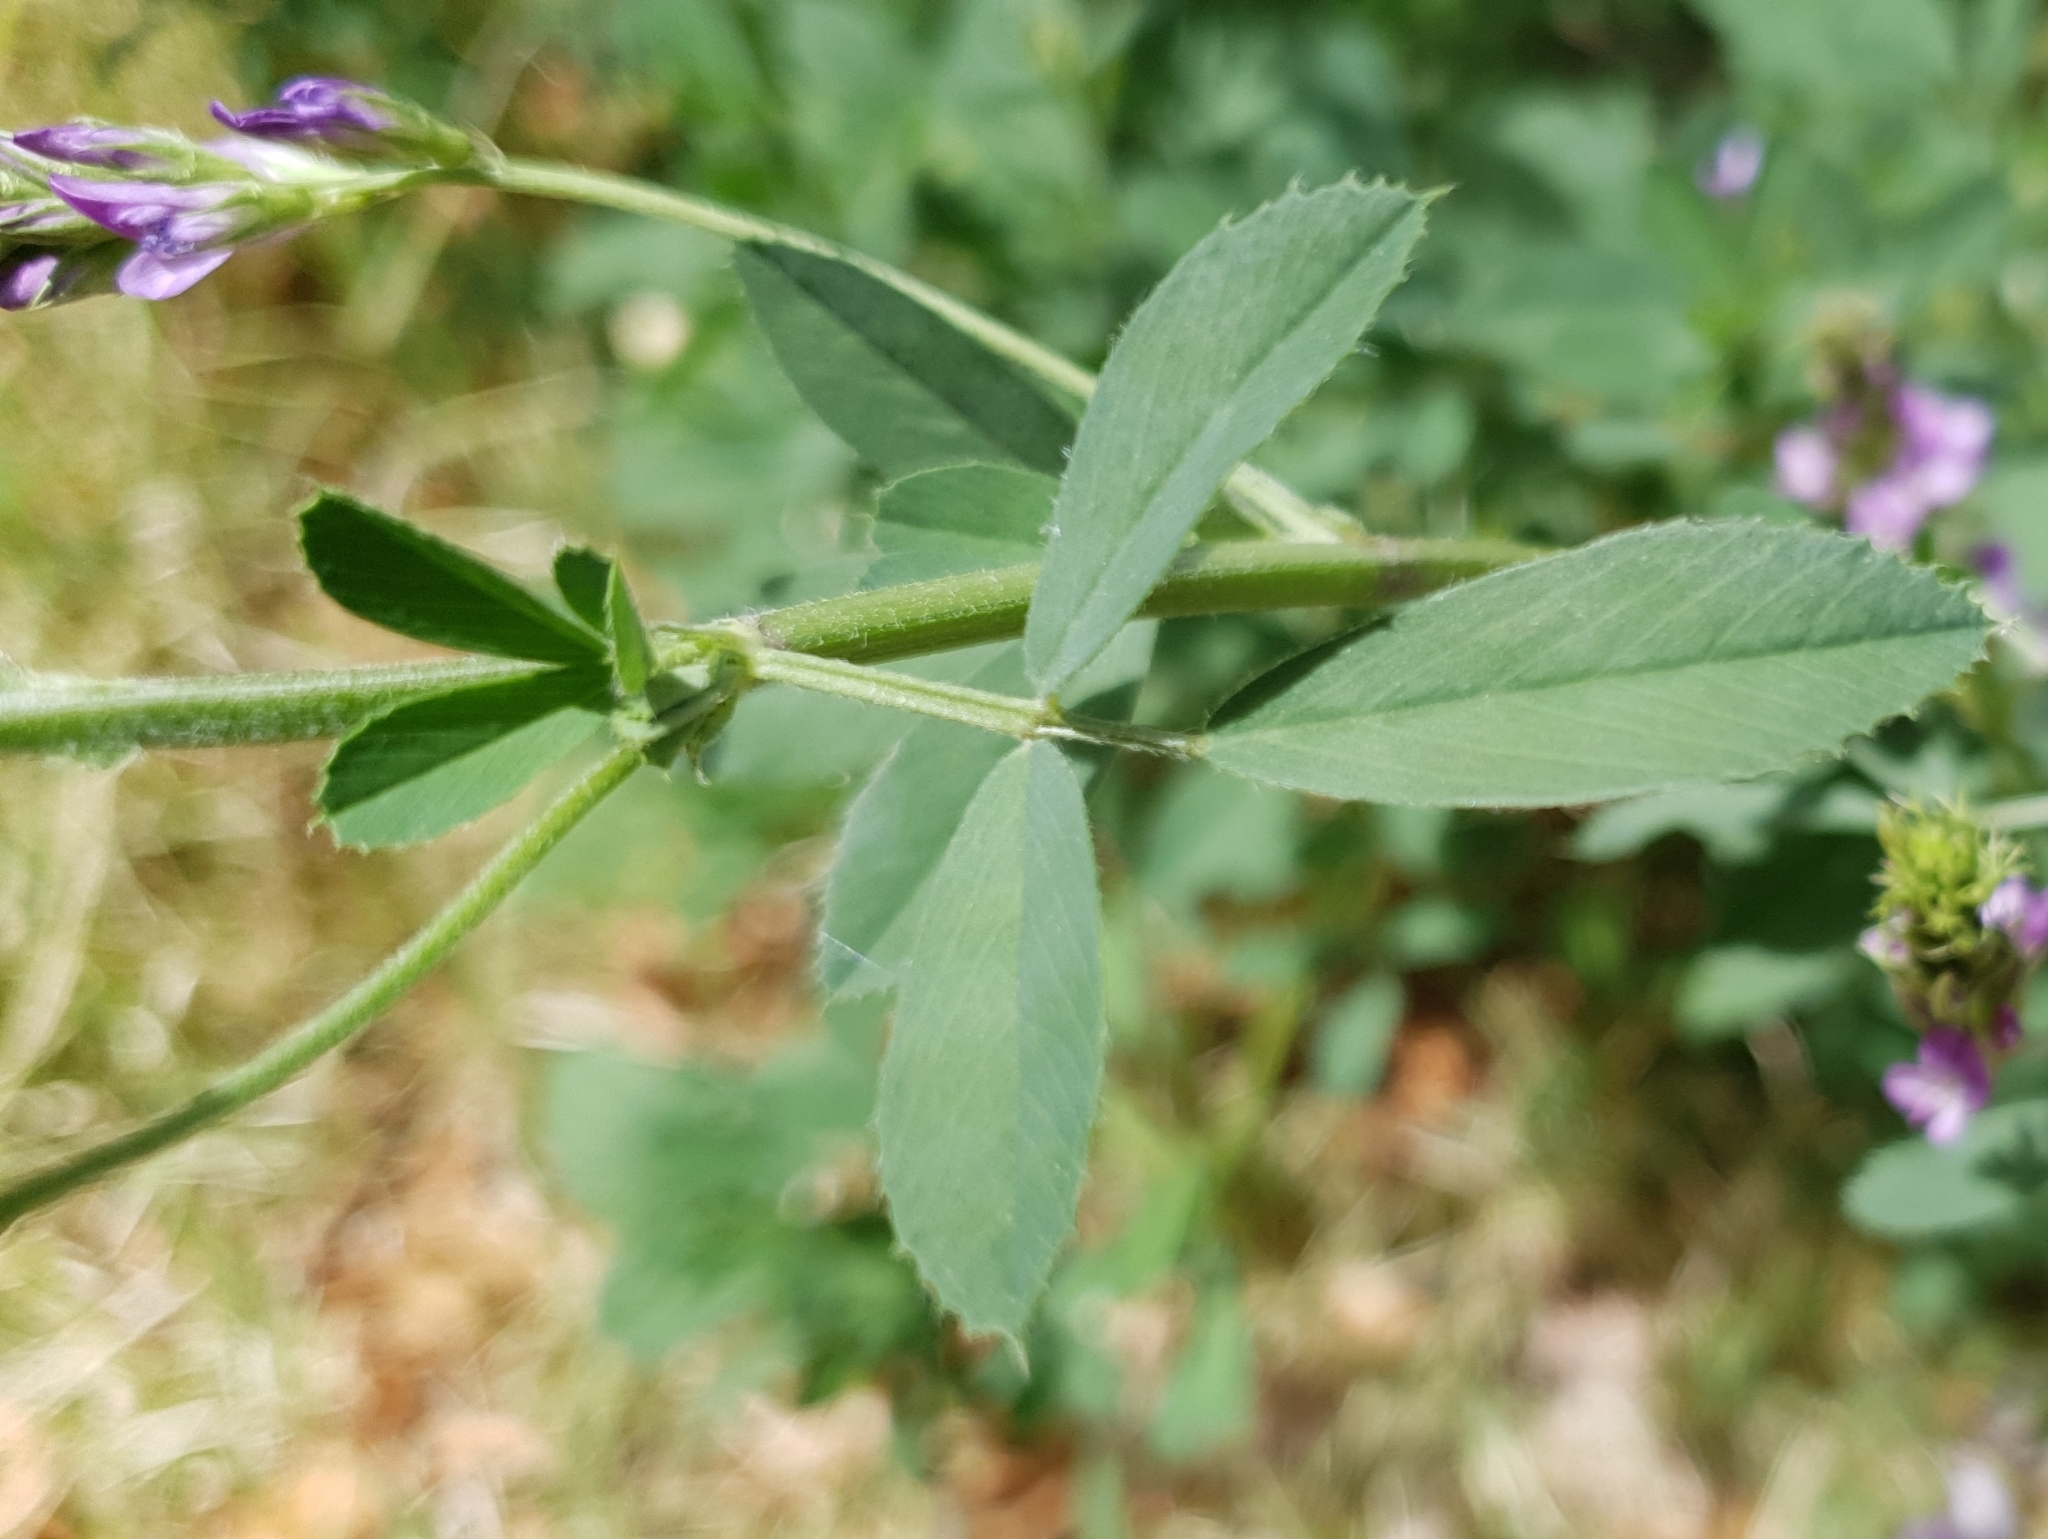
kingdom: Plantae
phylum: Tracheophyta
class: Magnoliopsida
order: Fabales
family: Fabaceae
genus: Medicago
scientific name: Medicago sativa
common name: Alfalfa
